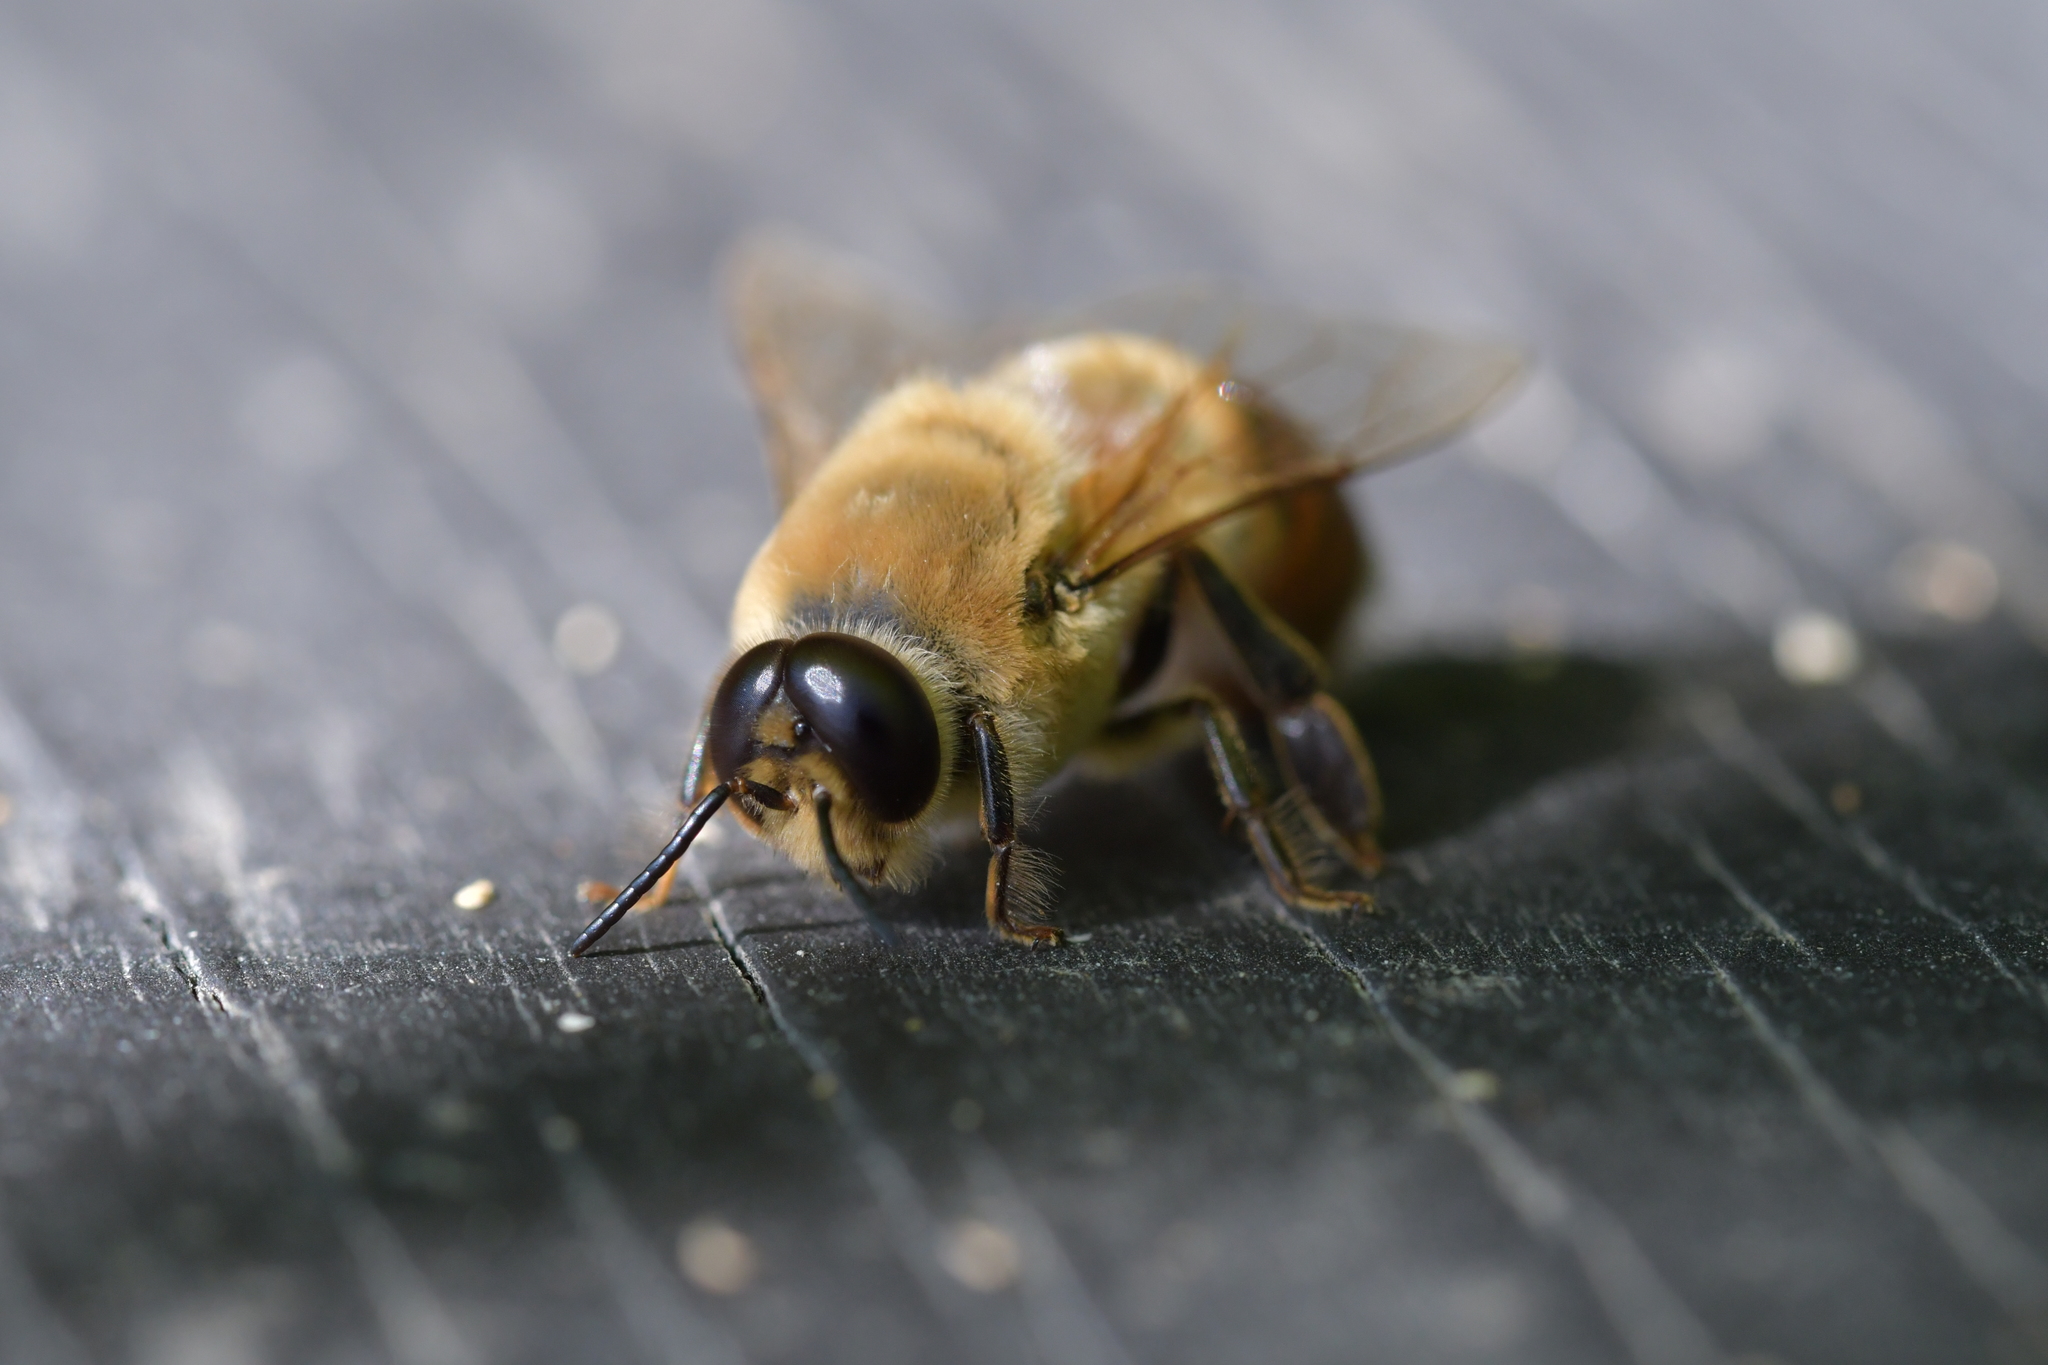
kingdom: Animalia
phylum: Arthropoda
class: Insecta
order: Hymenoptera
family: Apidae
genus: Apis
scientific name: Apis mellifera
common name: Honey bee
